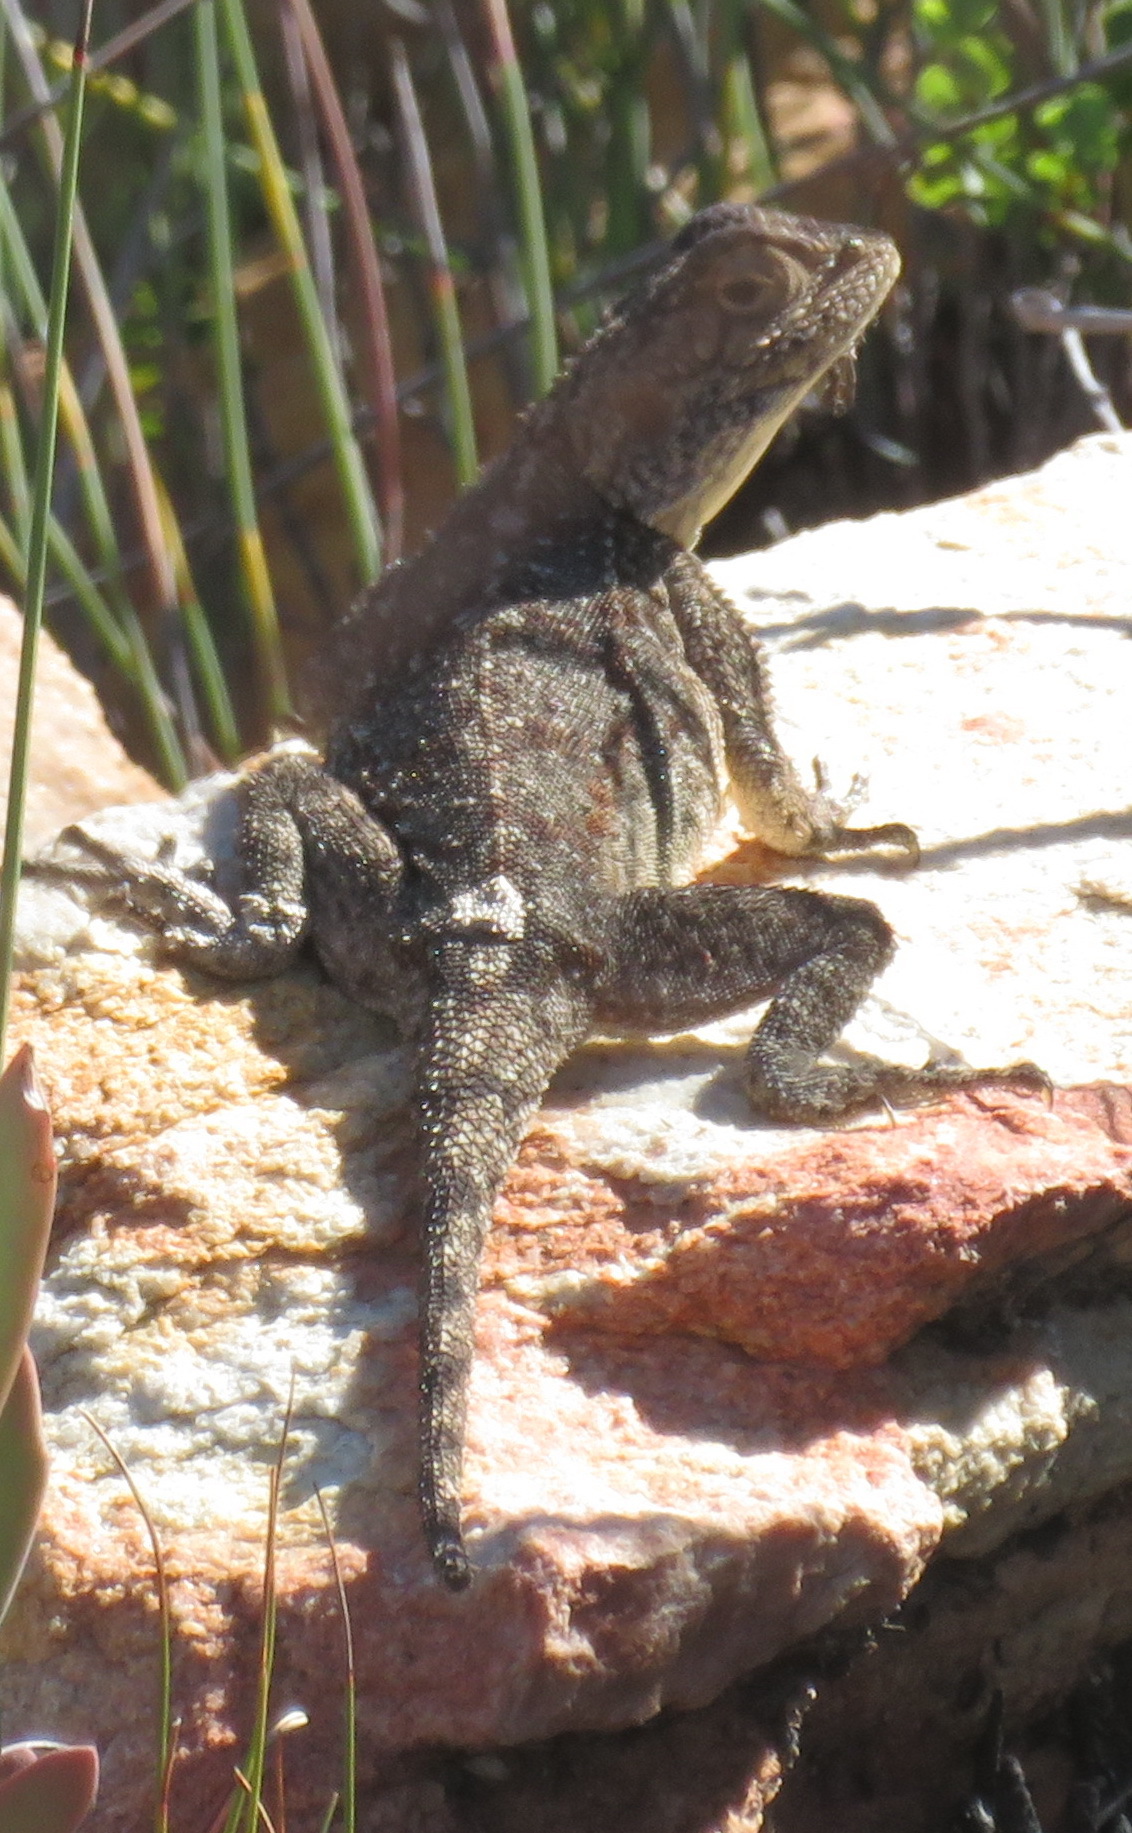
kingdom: Animalia
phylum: Chordata
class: Squamata
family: Agamidae
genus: Agama
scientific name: Agama atra
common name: Southern african rock agama
